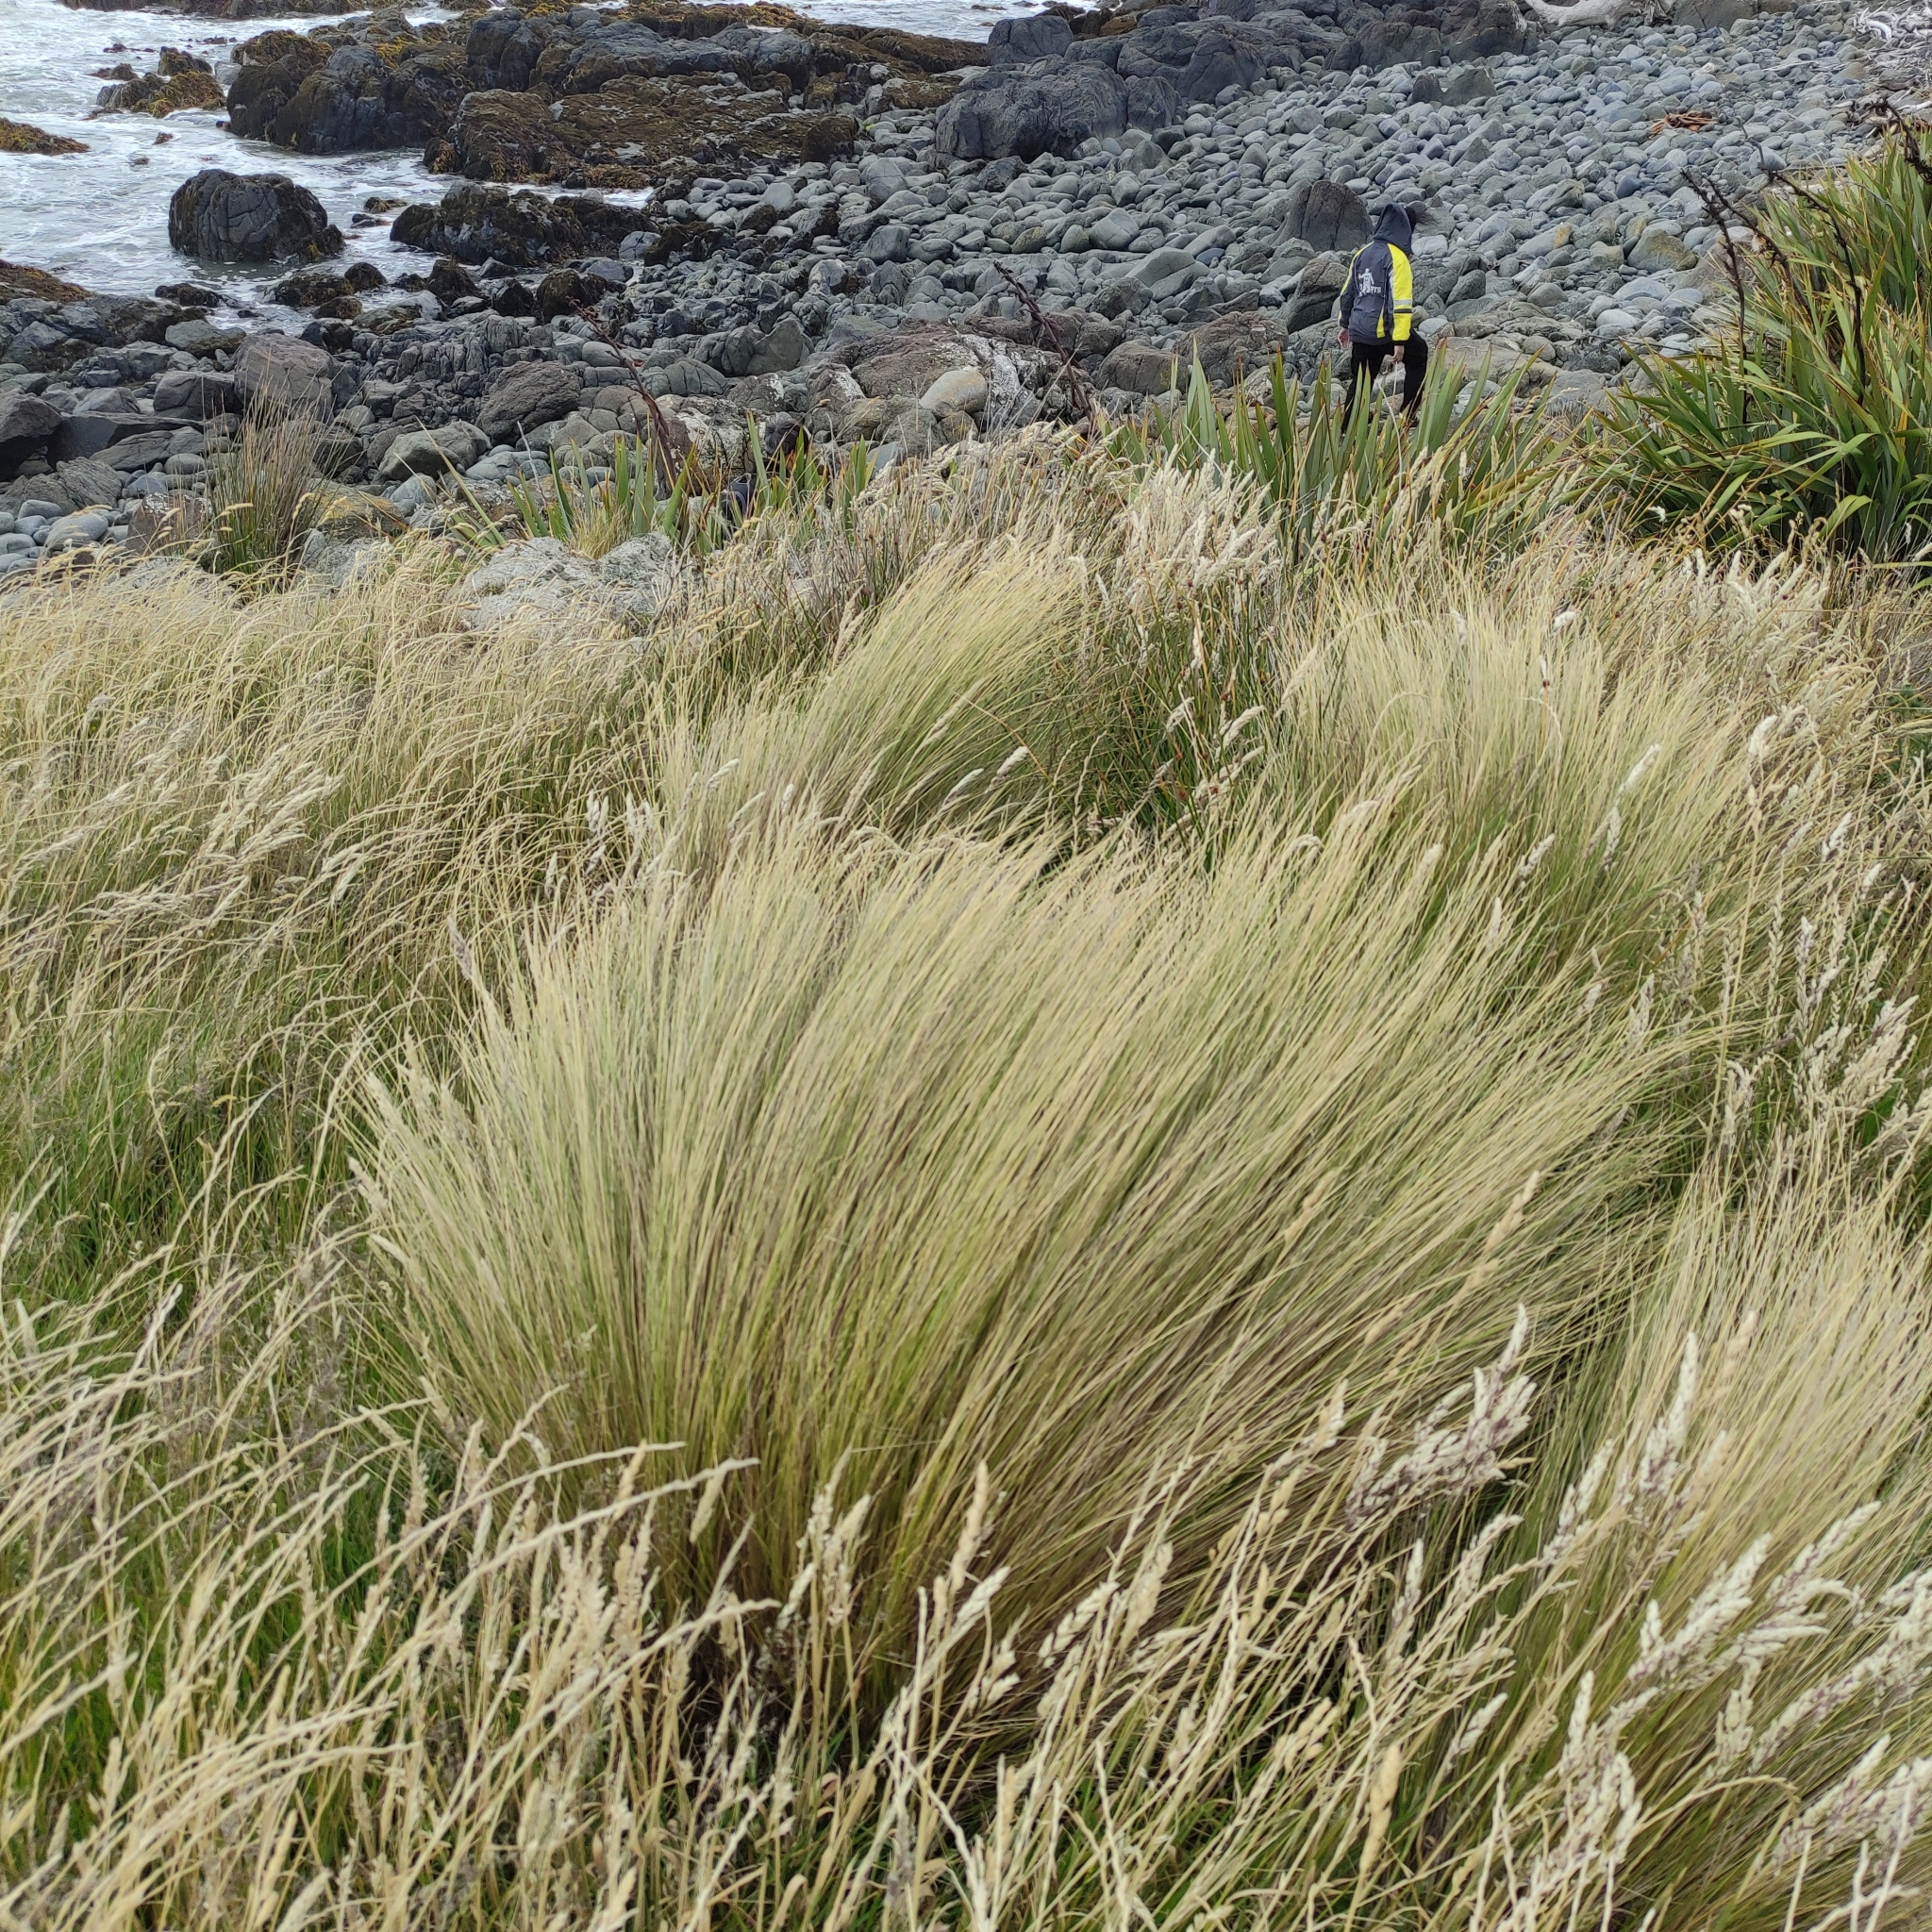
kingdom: Plantae
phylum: Tracheophyta
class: Liliopsida
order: Poales
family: Poaceae
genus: Poa
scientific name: Poa cita
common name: Silver tussock
